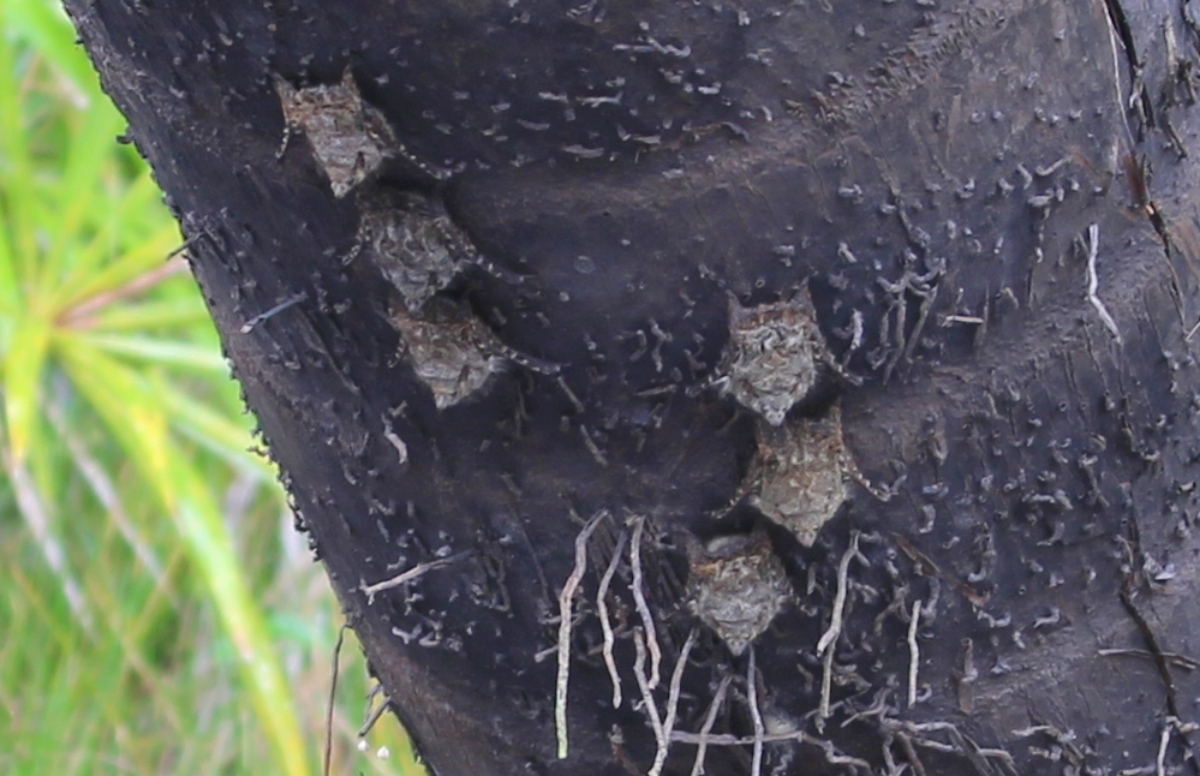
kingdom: Animalia
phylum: Chordata
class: Mammalia
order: Chiroptera
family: Emballonuridae
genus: Rhynchonycteris
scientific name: Rhynchonycteris naso
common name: Proboscis bat
